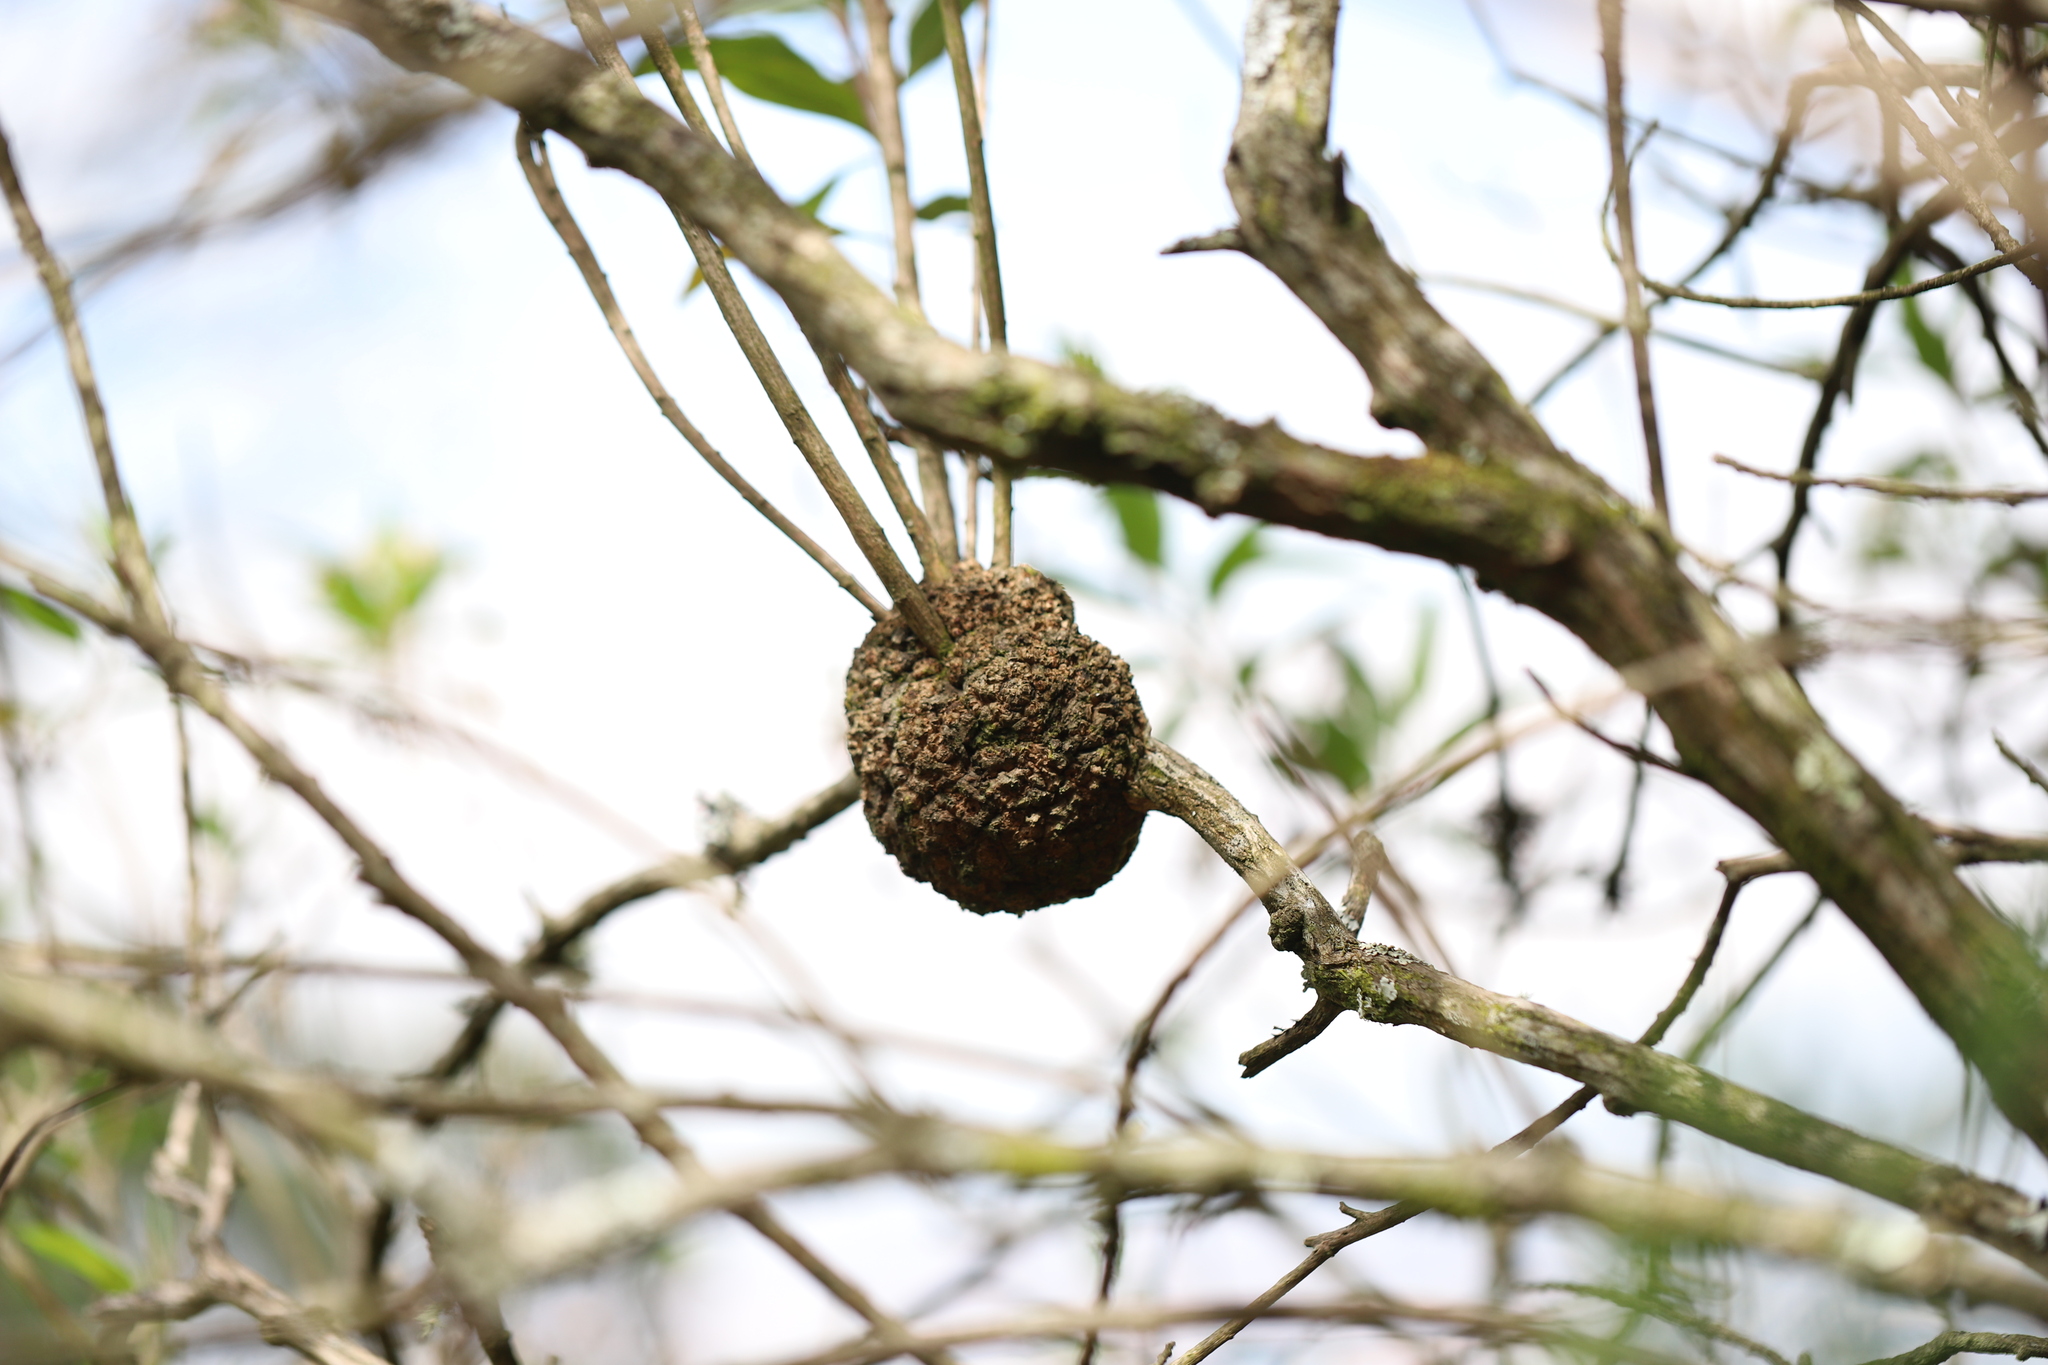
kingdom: Bacteria
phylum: Proteobacteria
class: Alphaproteobacteria
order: Rhizobiales
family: Rhizobiaceae
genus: Rhizobium
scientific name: Rhizobium Agrobacterium radiobacter
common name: Bacterial crown gall
